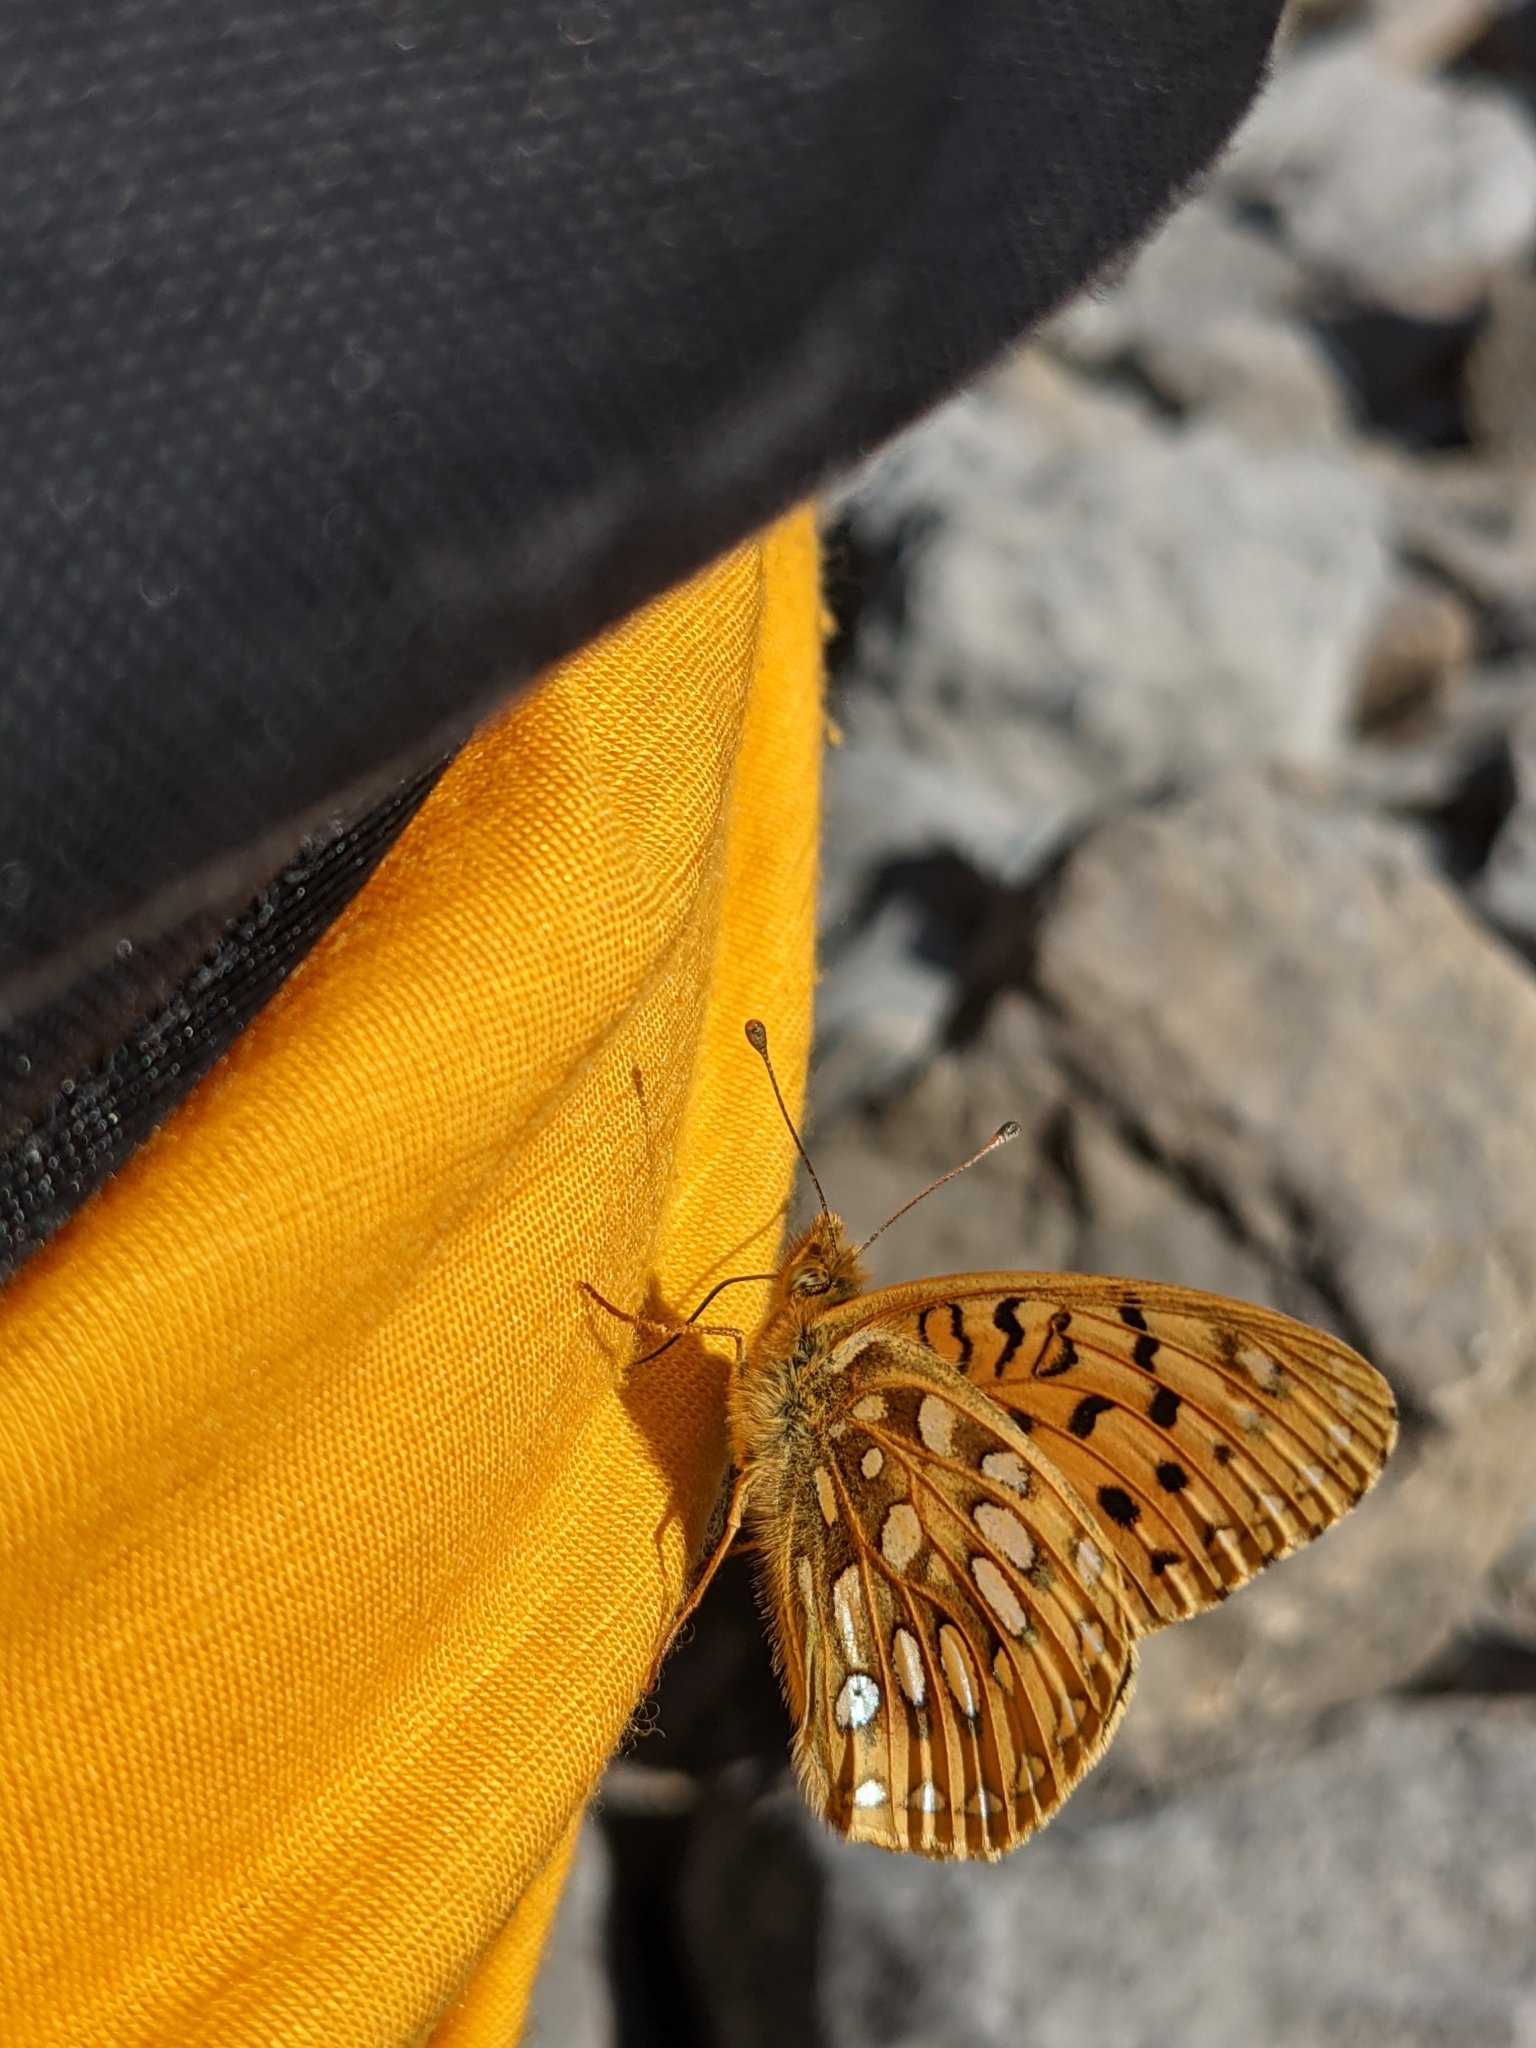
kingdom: Animalia
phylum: Arthropoda
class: Insecta
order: Lepidoptera
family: Nymphalidae
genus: Speyeria
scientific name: Speyeria mormonia
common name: Mormon fritillary
